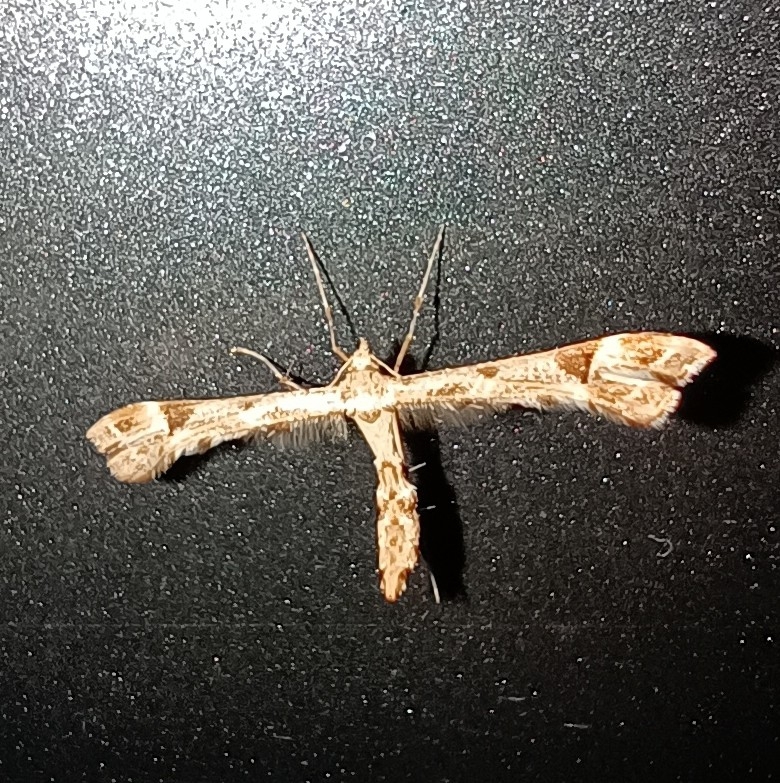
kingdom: Animalia
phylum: Arthropoda
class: Insecta
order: Lepidoptera
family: Pterophoridae
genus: Platyptilia
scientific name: Platyptilia gonodactyla
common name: Triangle plume
